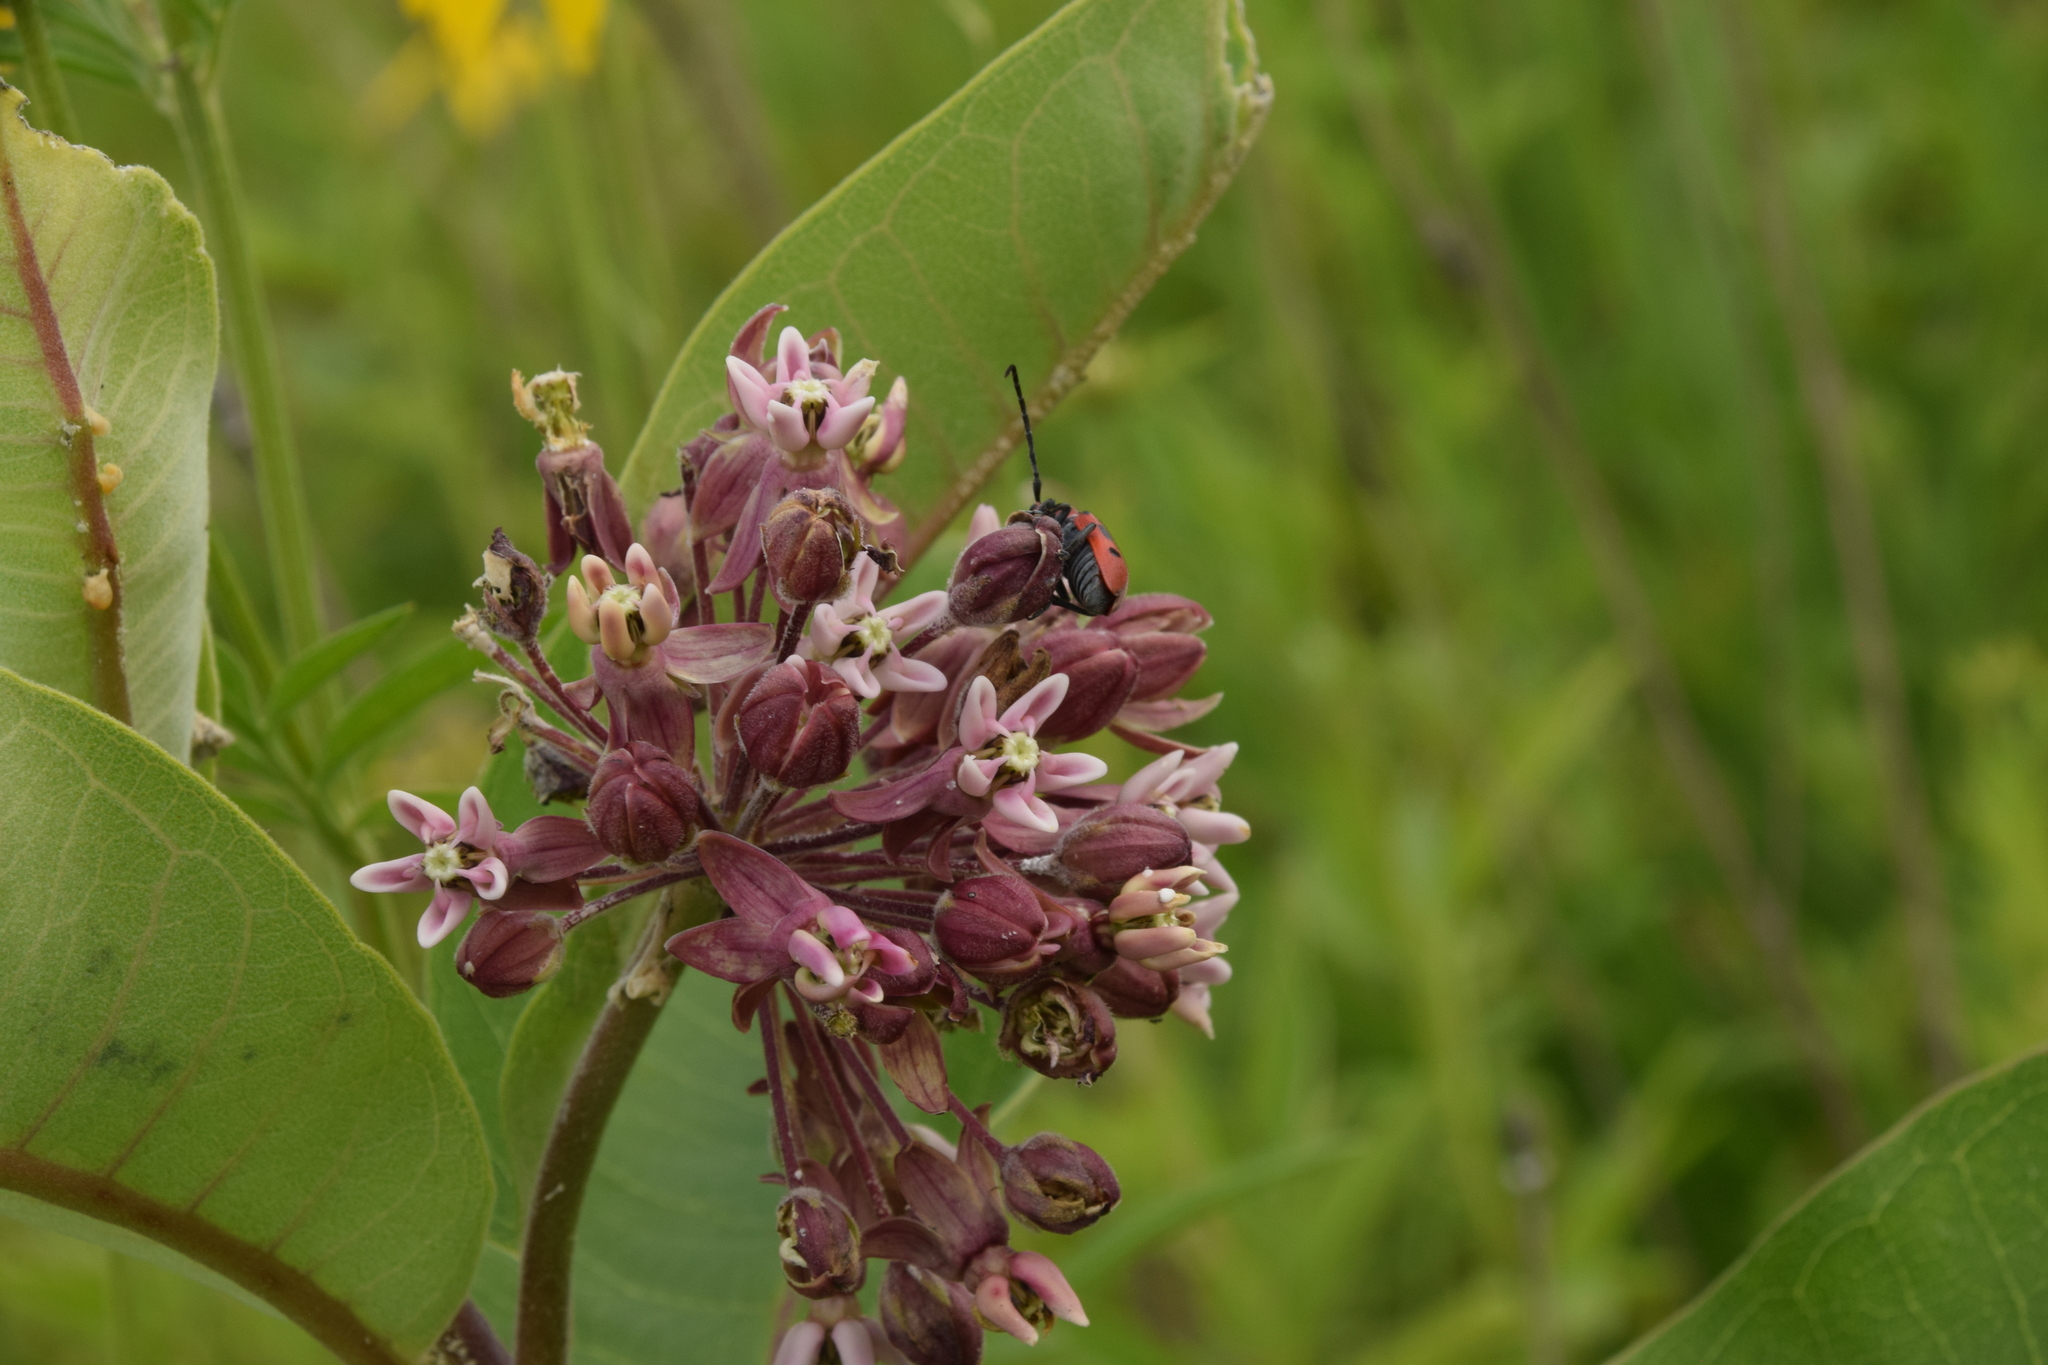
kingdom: Plantae
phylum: Tracheophyta
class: Magnoliopsida
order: Gentianales
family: Apocynaceae
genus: Asclepias
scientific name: Asclepias syriaca
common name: Common milkweed
